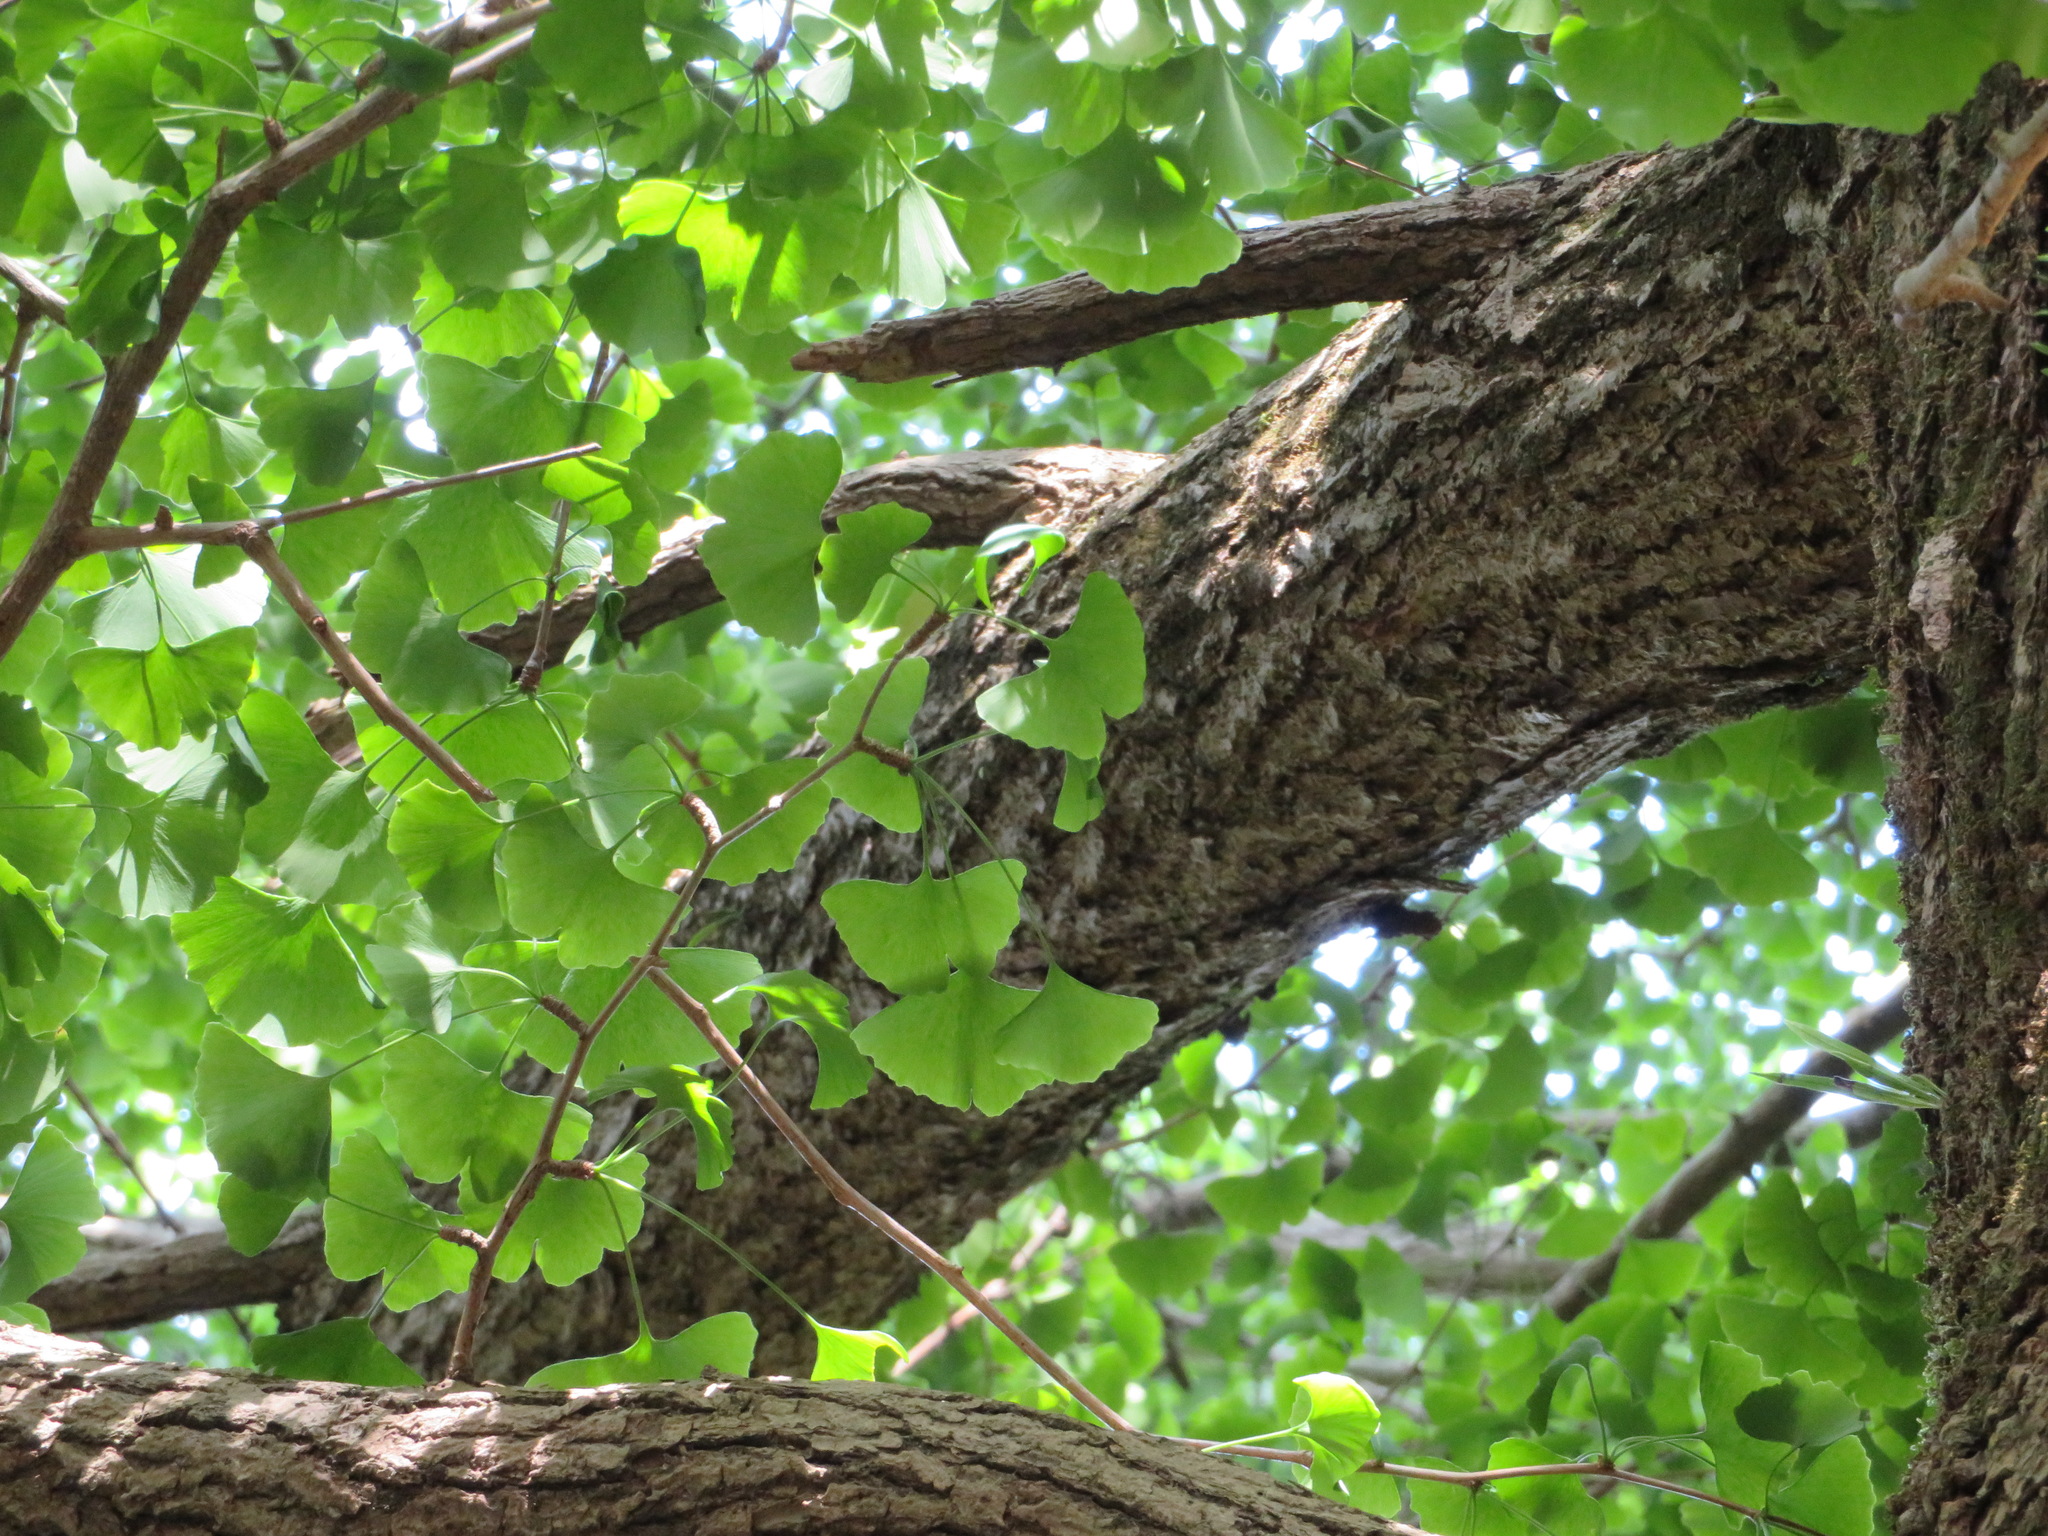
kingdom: Plantae
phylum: Tracheophyta
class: Ginkgoopsida
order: Ginkgoales
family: Ginkgoaceae
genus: Ginkgo
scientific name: Ginkgo biloba
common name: Ginkgo
